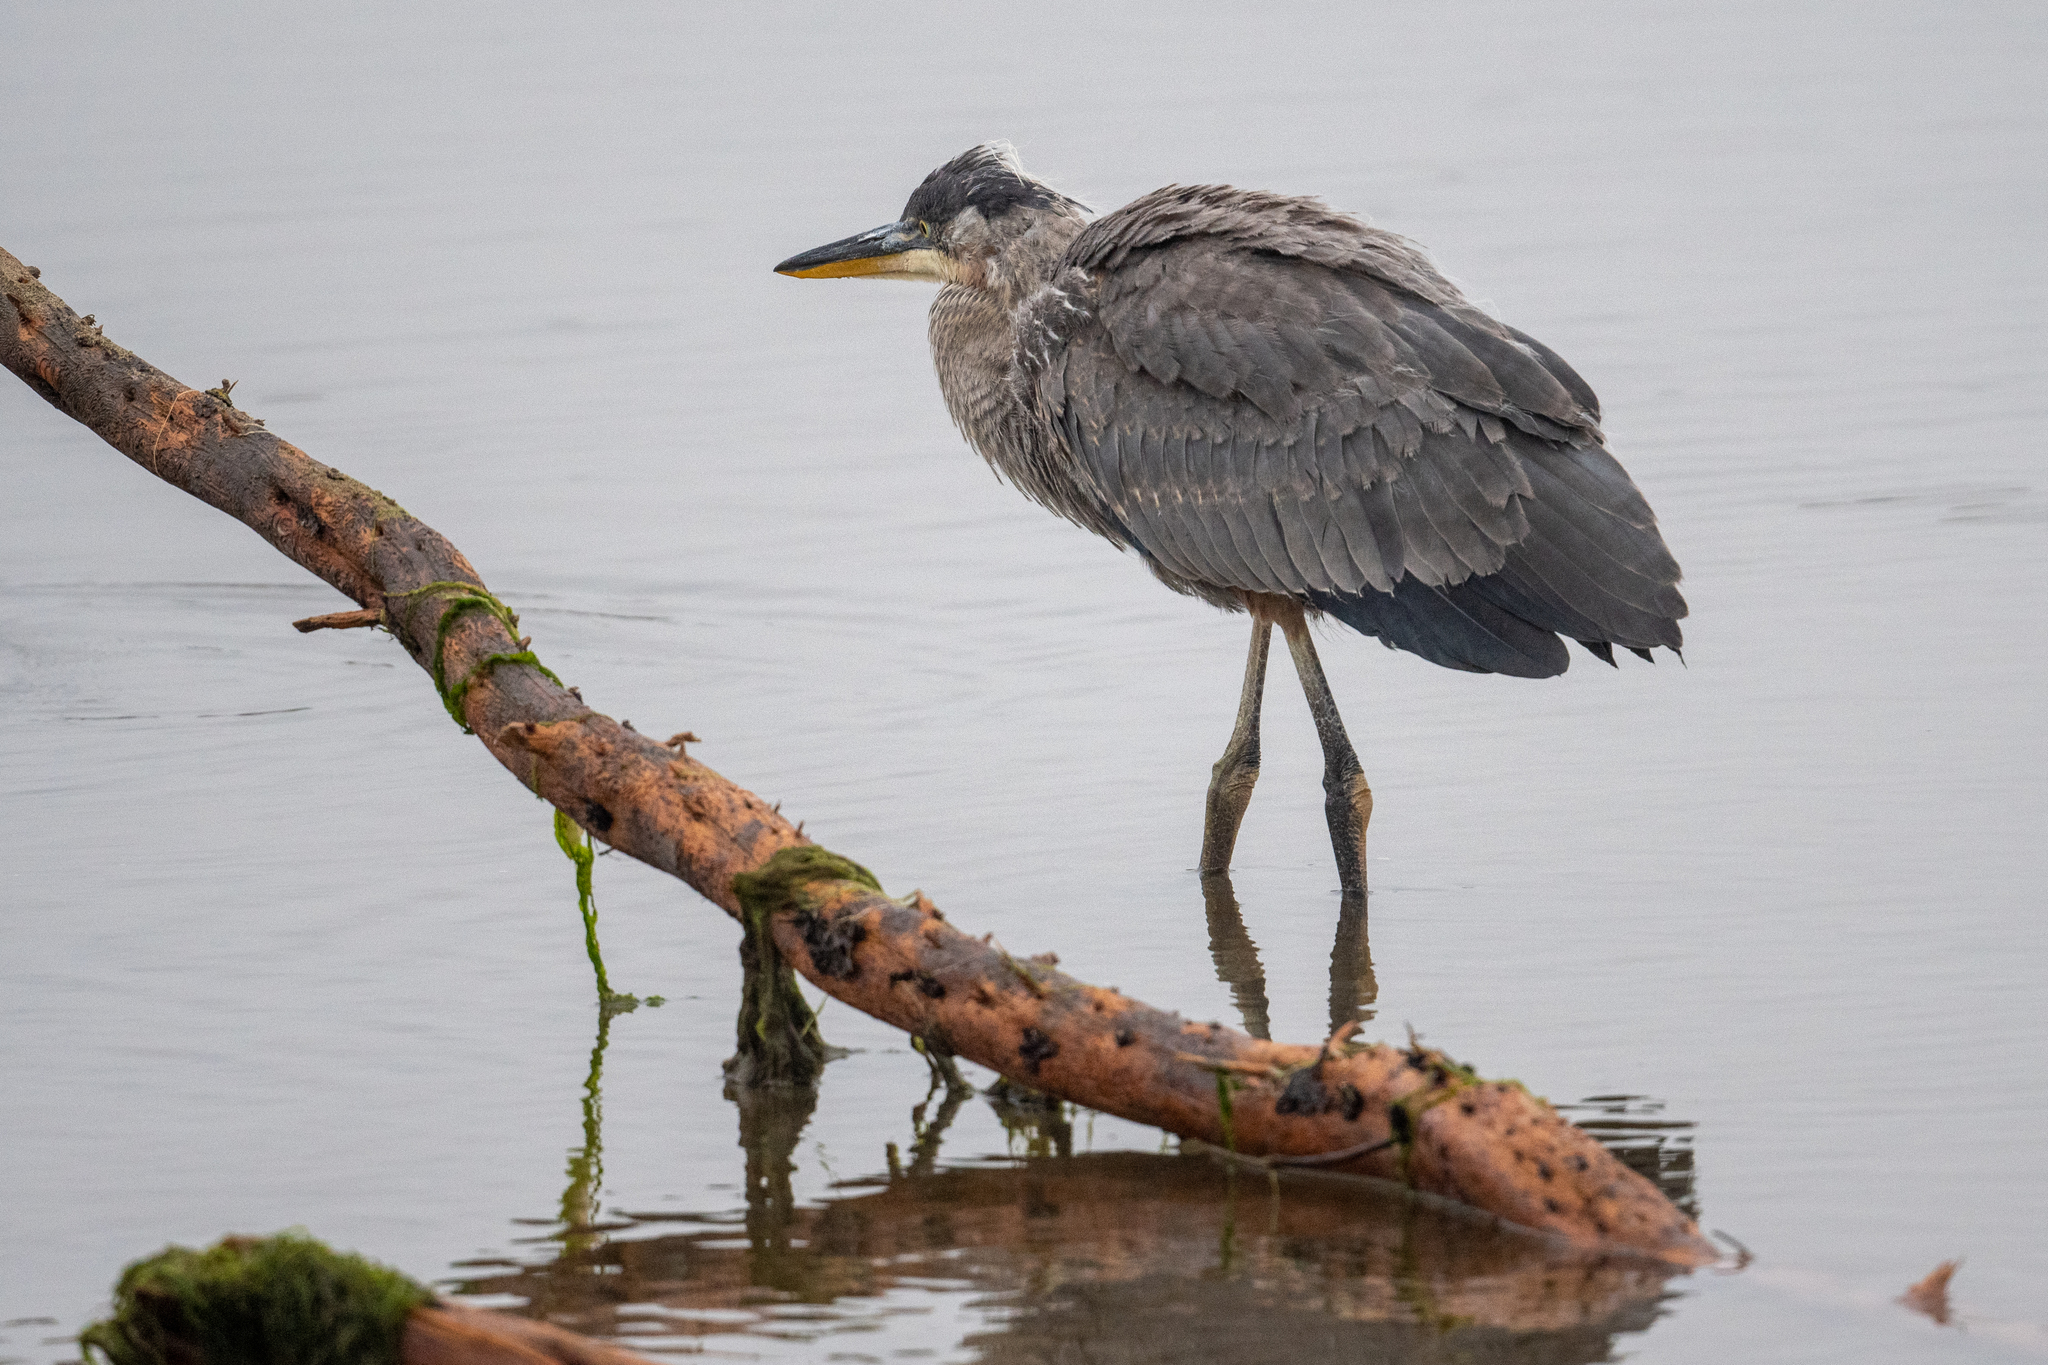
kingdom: Animalia
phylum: Chordata
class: Aves
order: Pelecaniformes
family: Ardeidae
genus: Ardea
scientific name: Ardea herodias
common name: Great blue heron
